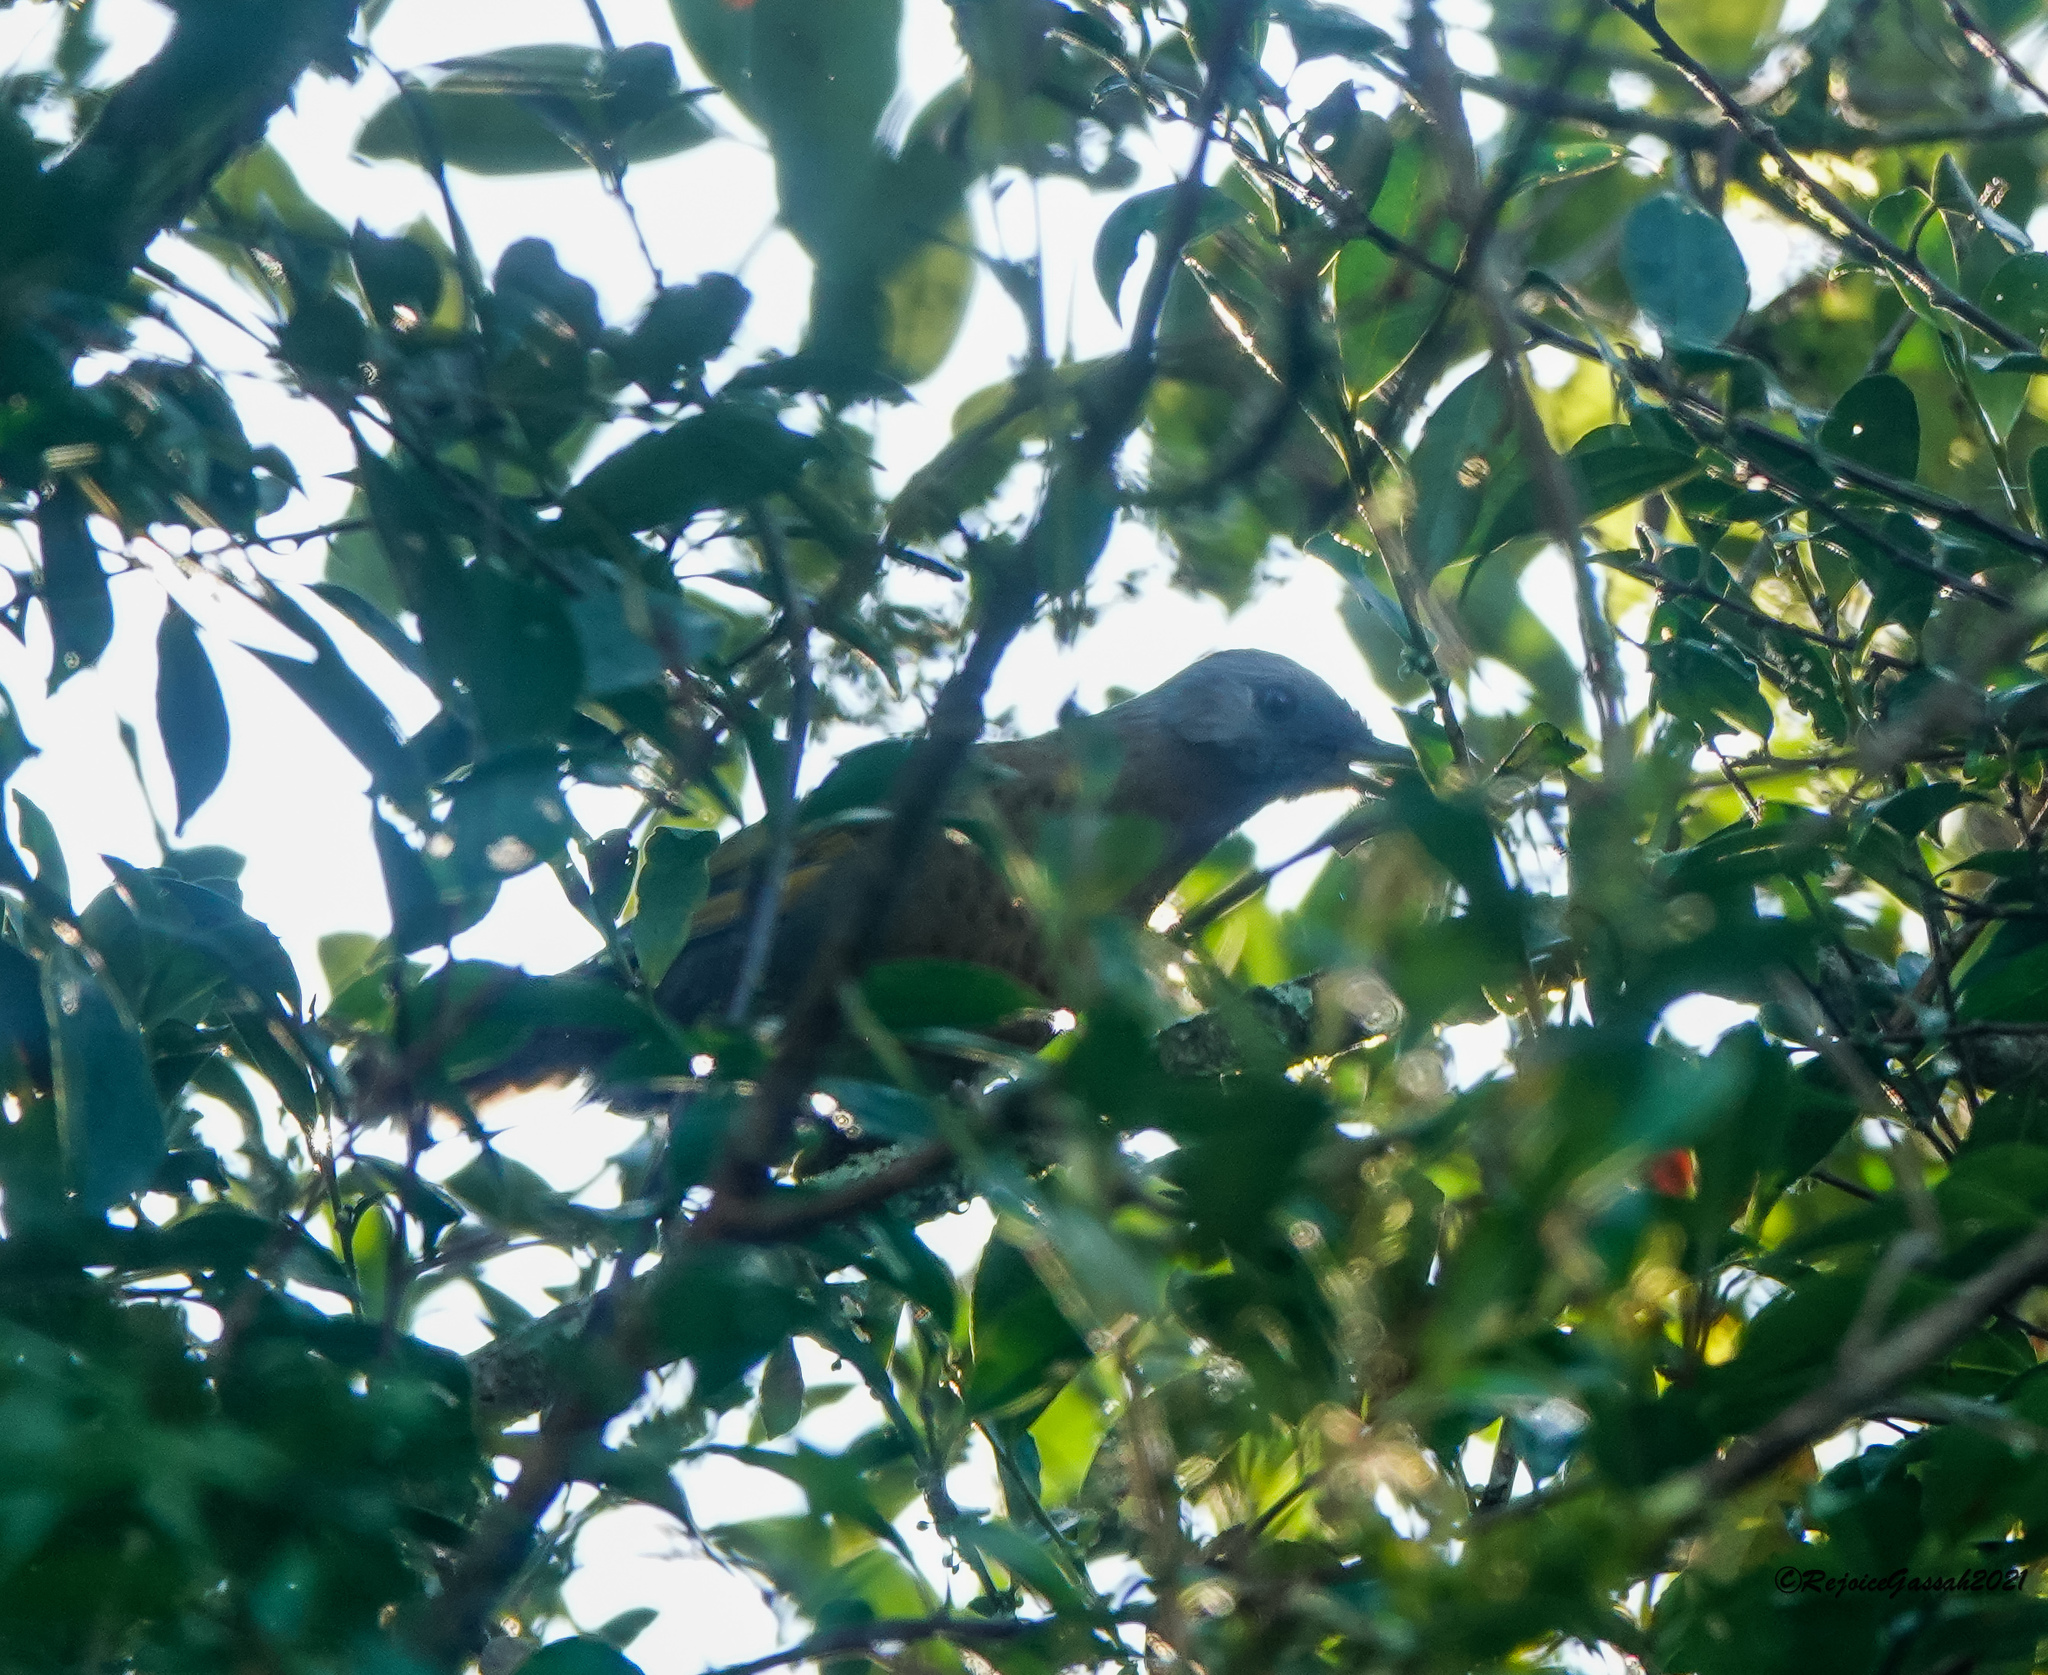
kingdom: Animalia
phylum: Chordata
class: Aves
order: Passeriformes
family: Leiothrichidae
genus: Trochalopteron
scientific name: Trochalopteron chrysopterum
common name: Assam laughingthrush
